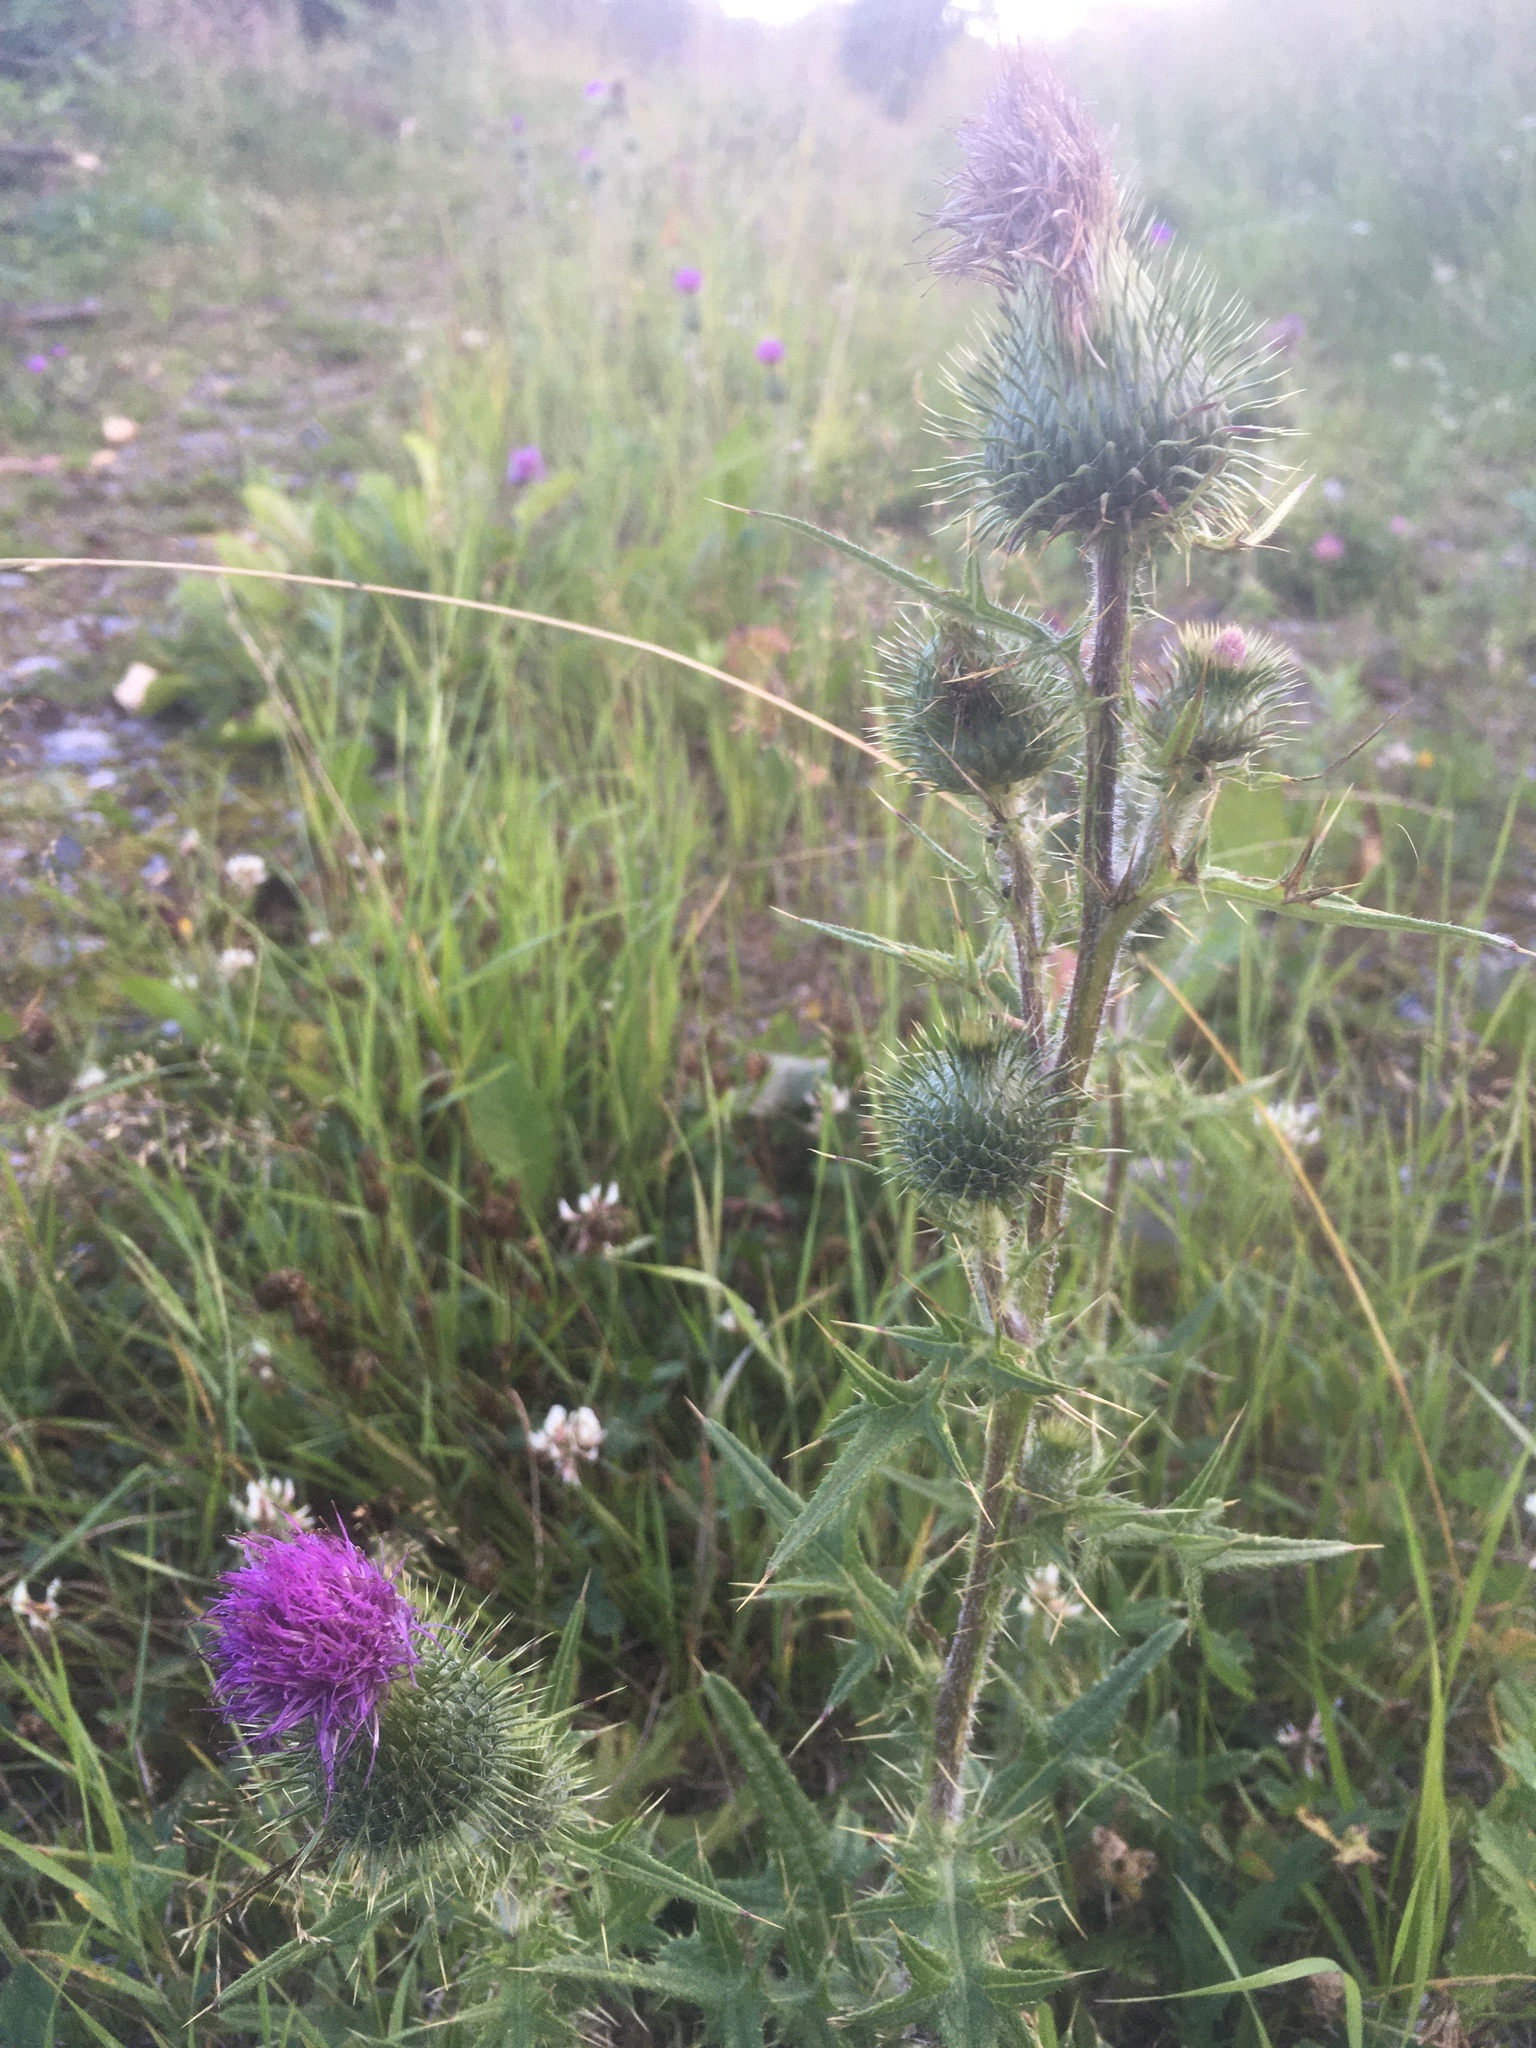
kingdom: Plantae
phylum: Tracheophyta
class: Magnoliopsida
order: Asterales
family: Asteraceae
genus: Cirsium
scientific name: Cirsium vulgare
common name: Bull thistle
